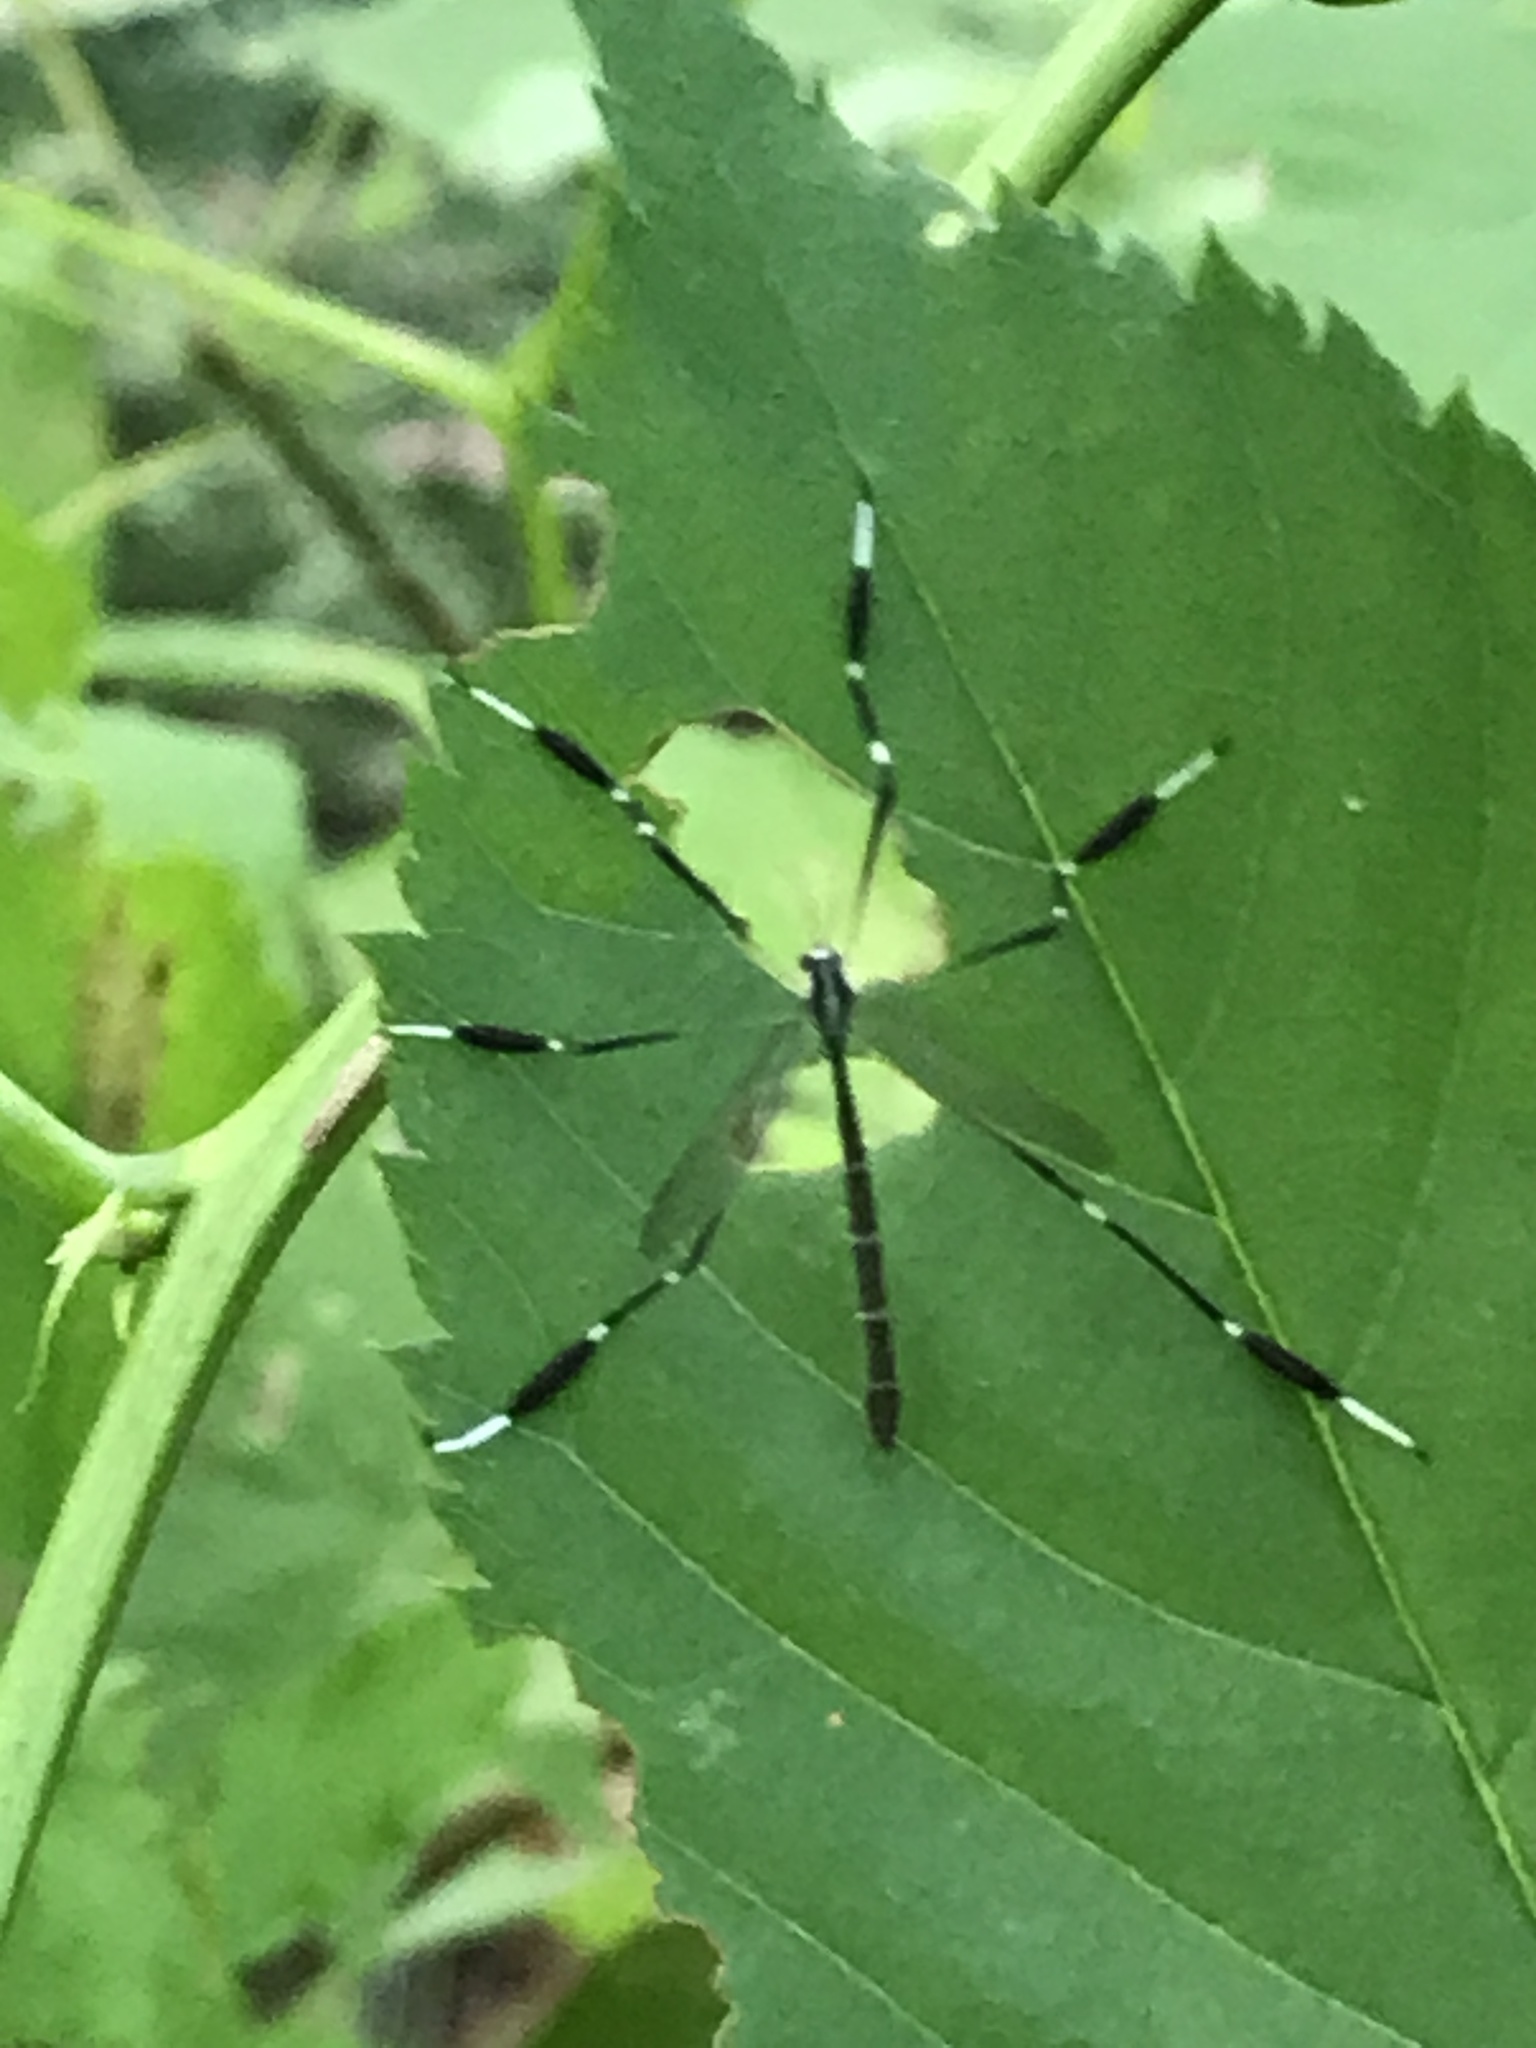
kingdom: Animalia
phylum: Arthropoda
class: Insecta
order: Diptera
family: Ptychopteridae
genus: Bittacomorpha
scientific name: Bittacomorpha clavipes
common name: Eastern phantom crane fly
